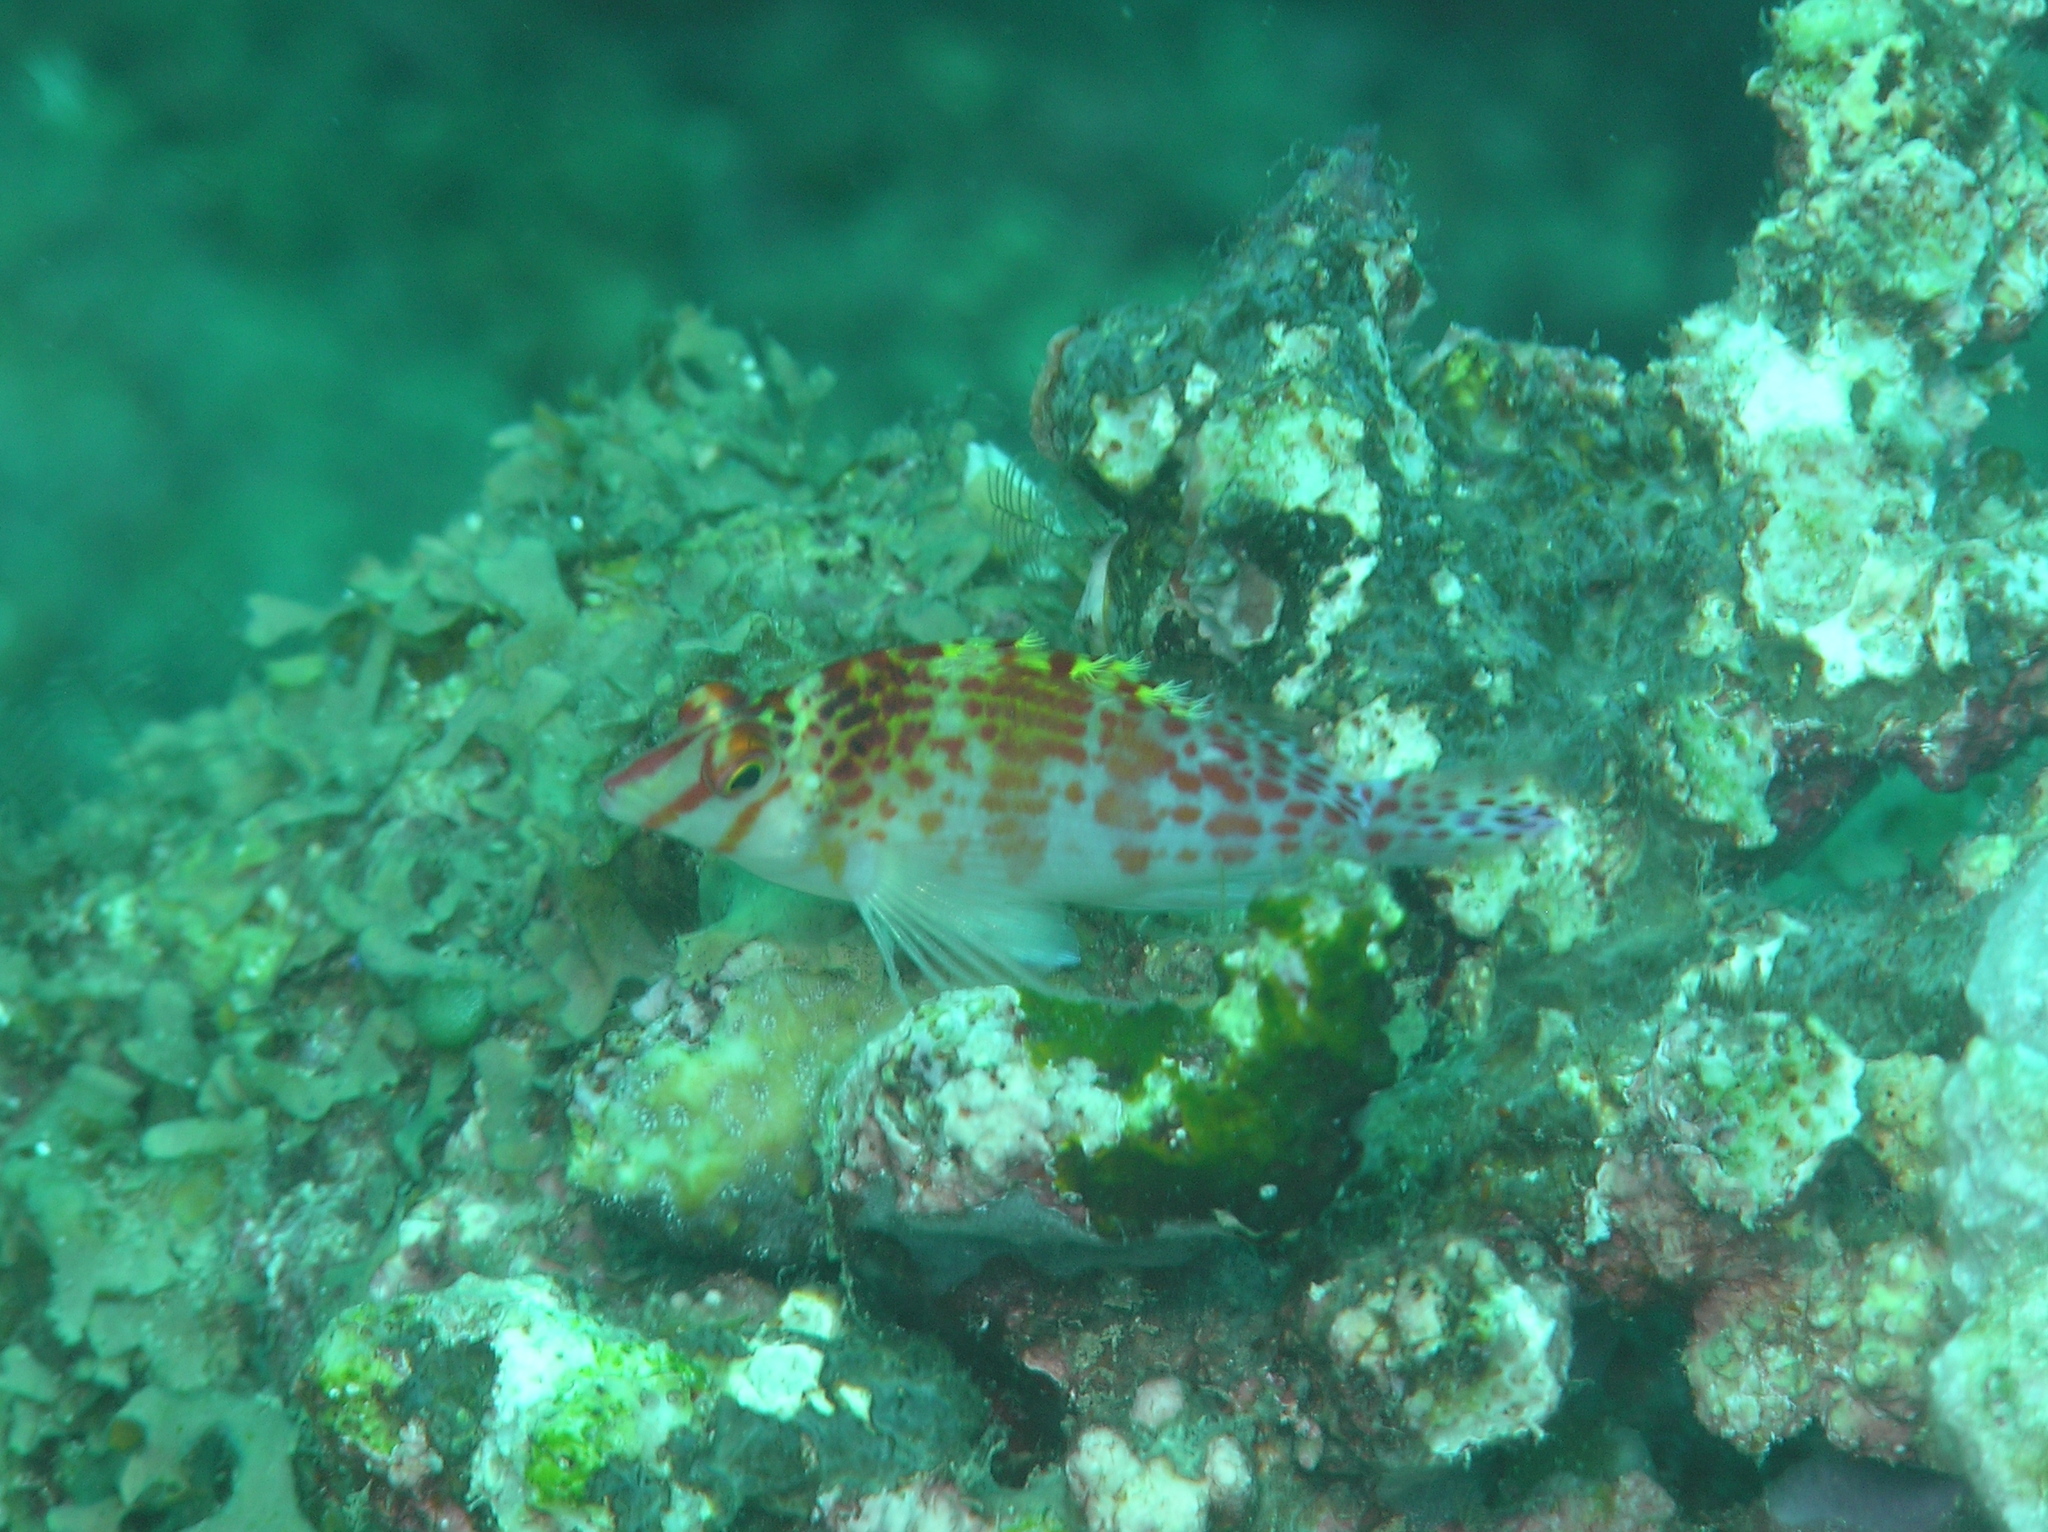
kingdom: Animalia
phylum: Chordata
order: Perciformes
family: Cirrhitidae
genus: Cirrhitichthys
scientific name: Cirrhitichthys falco
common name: Coral hawkfish
